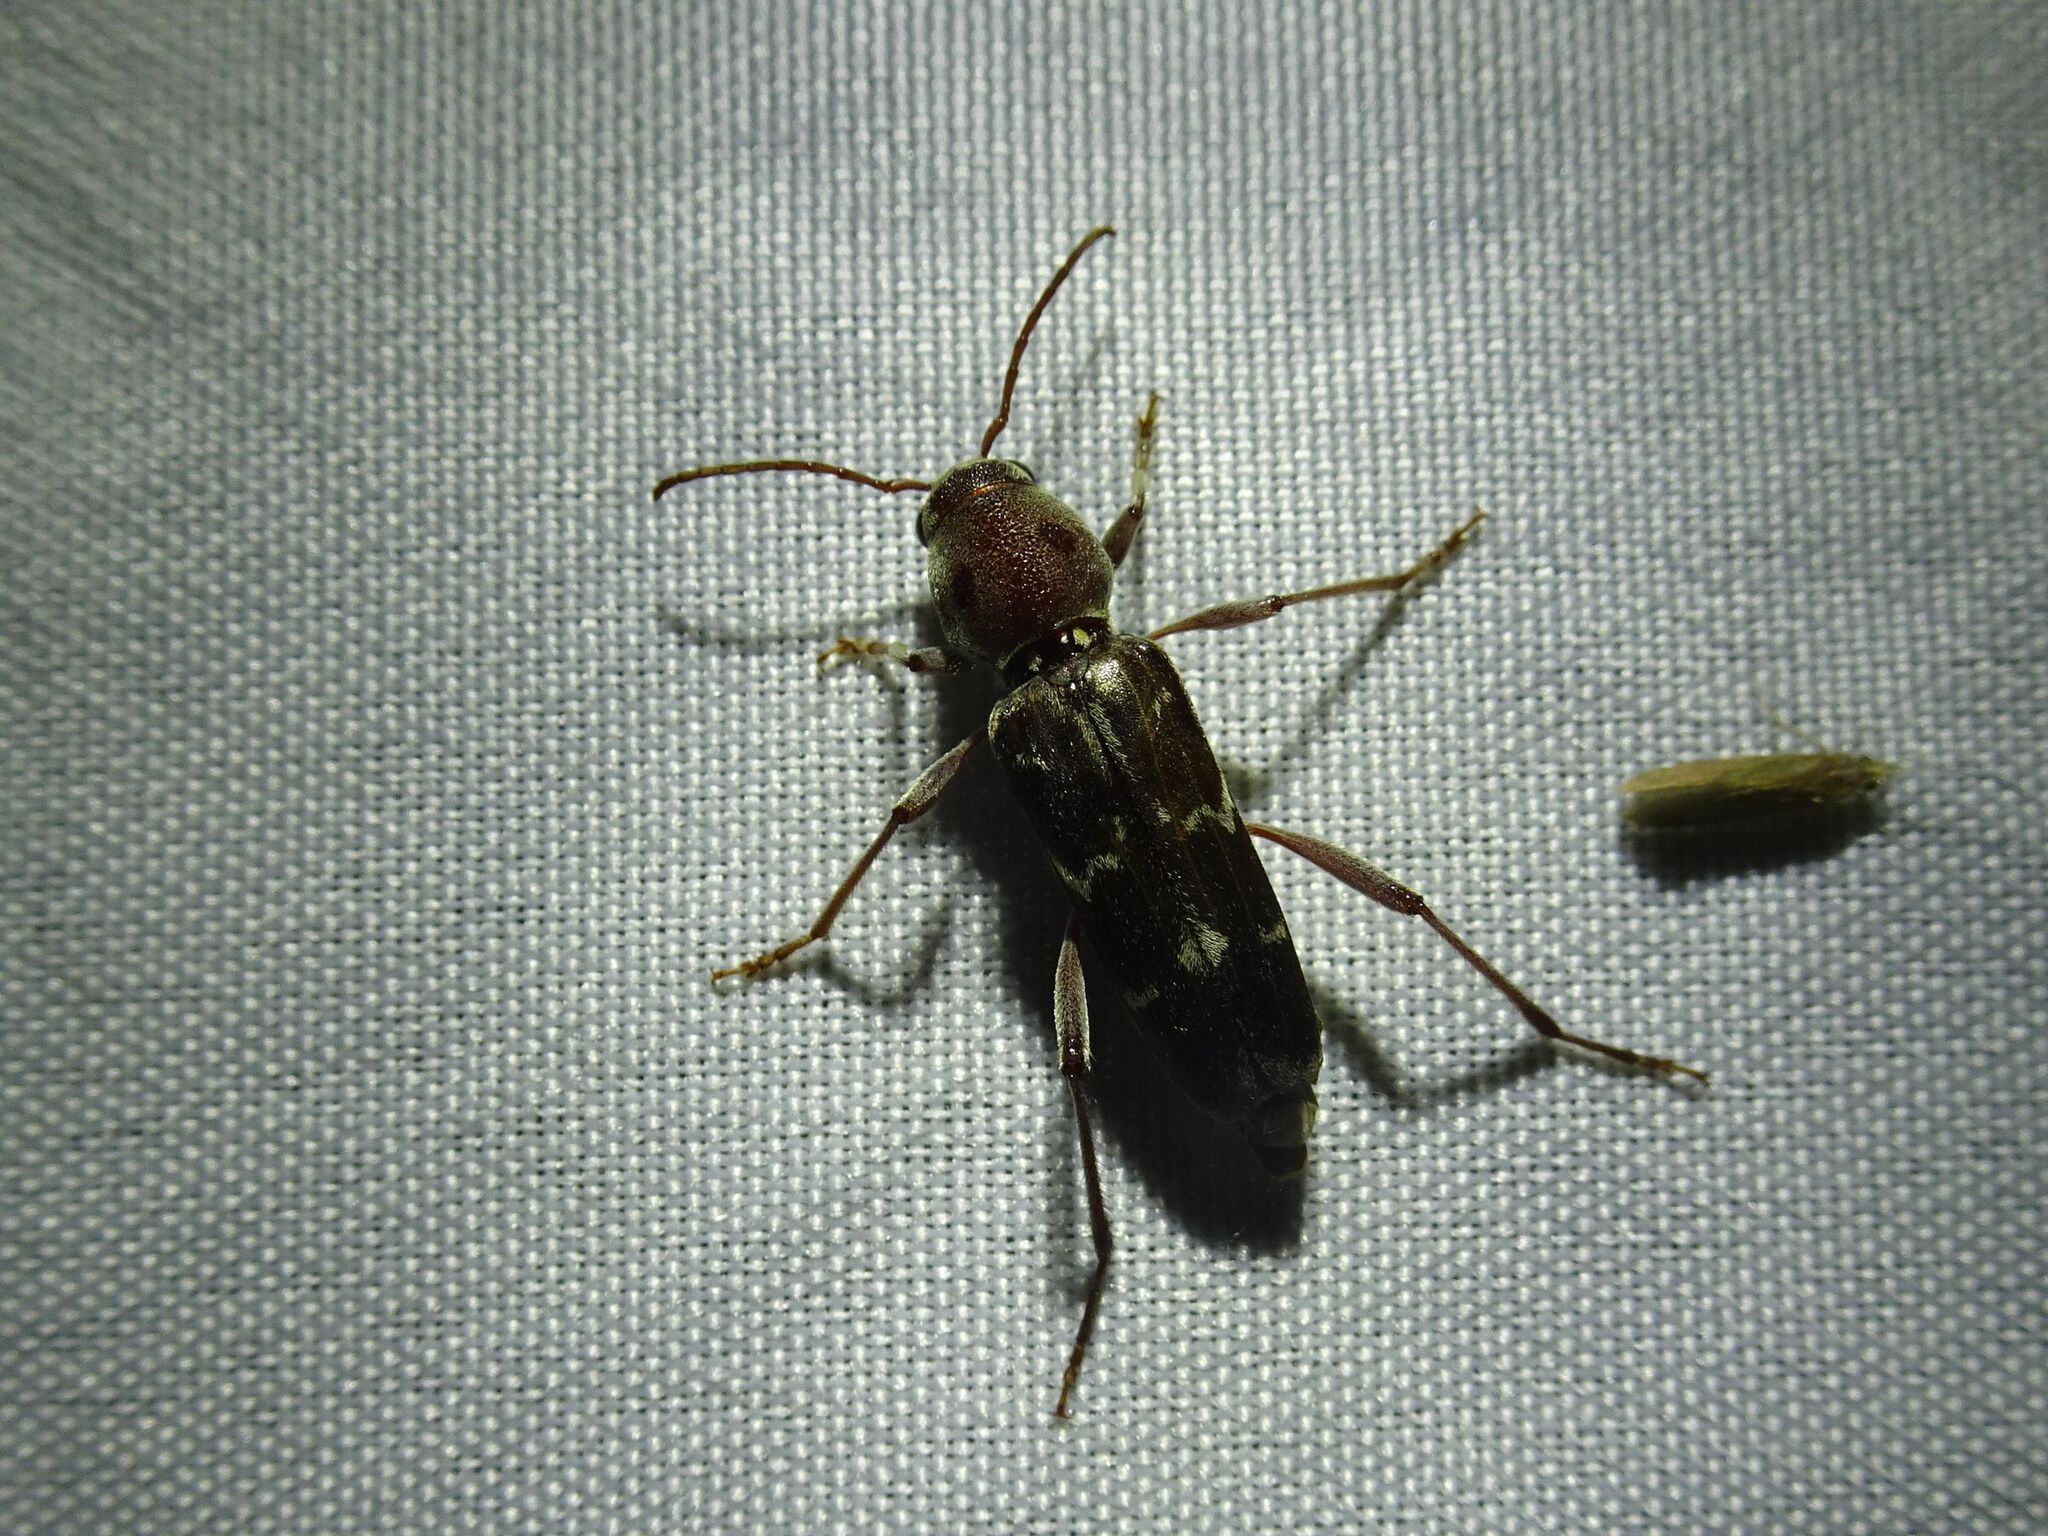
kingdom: Animalia
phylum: Arthropoda
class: Insecta
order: Coleoptera
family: Cerambycidae
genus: Xylotrechus
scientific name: Xylotrechus smei
